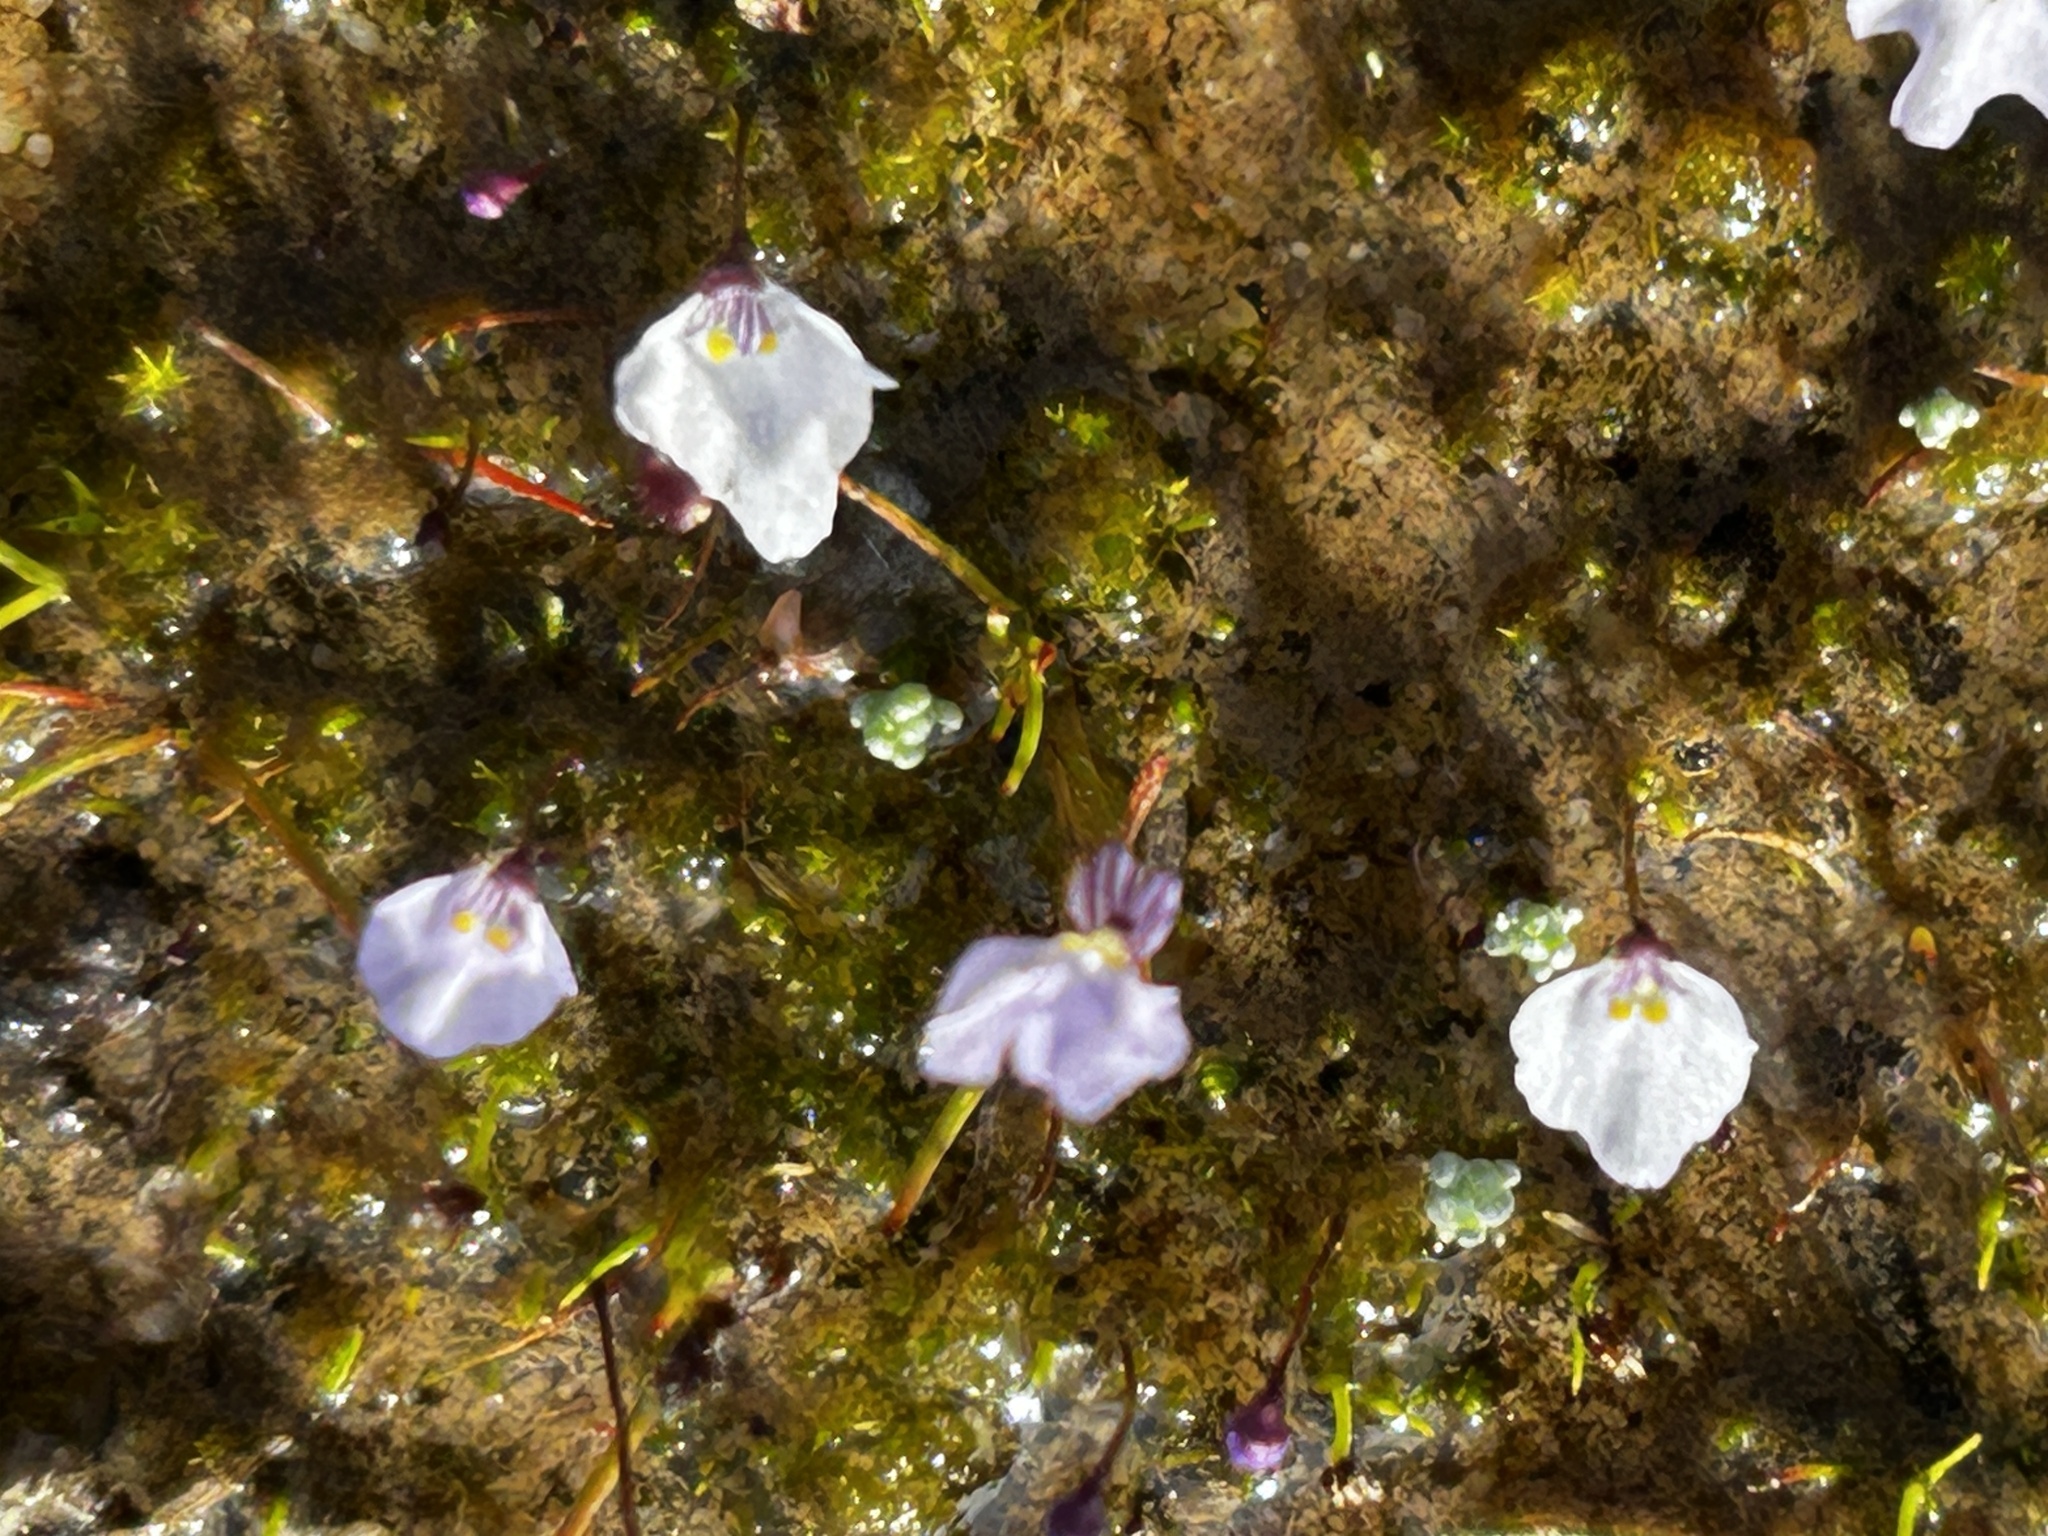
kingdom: Plantae
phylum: Tracheophyta
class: Magnoliopsida
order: Lamiales
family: Lentibulariaceae
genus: Utricularia
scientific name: Utricularia bisquamata
